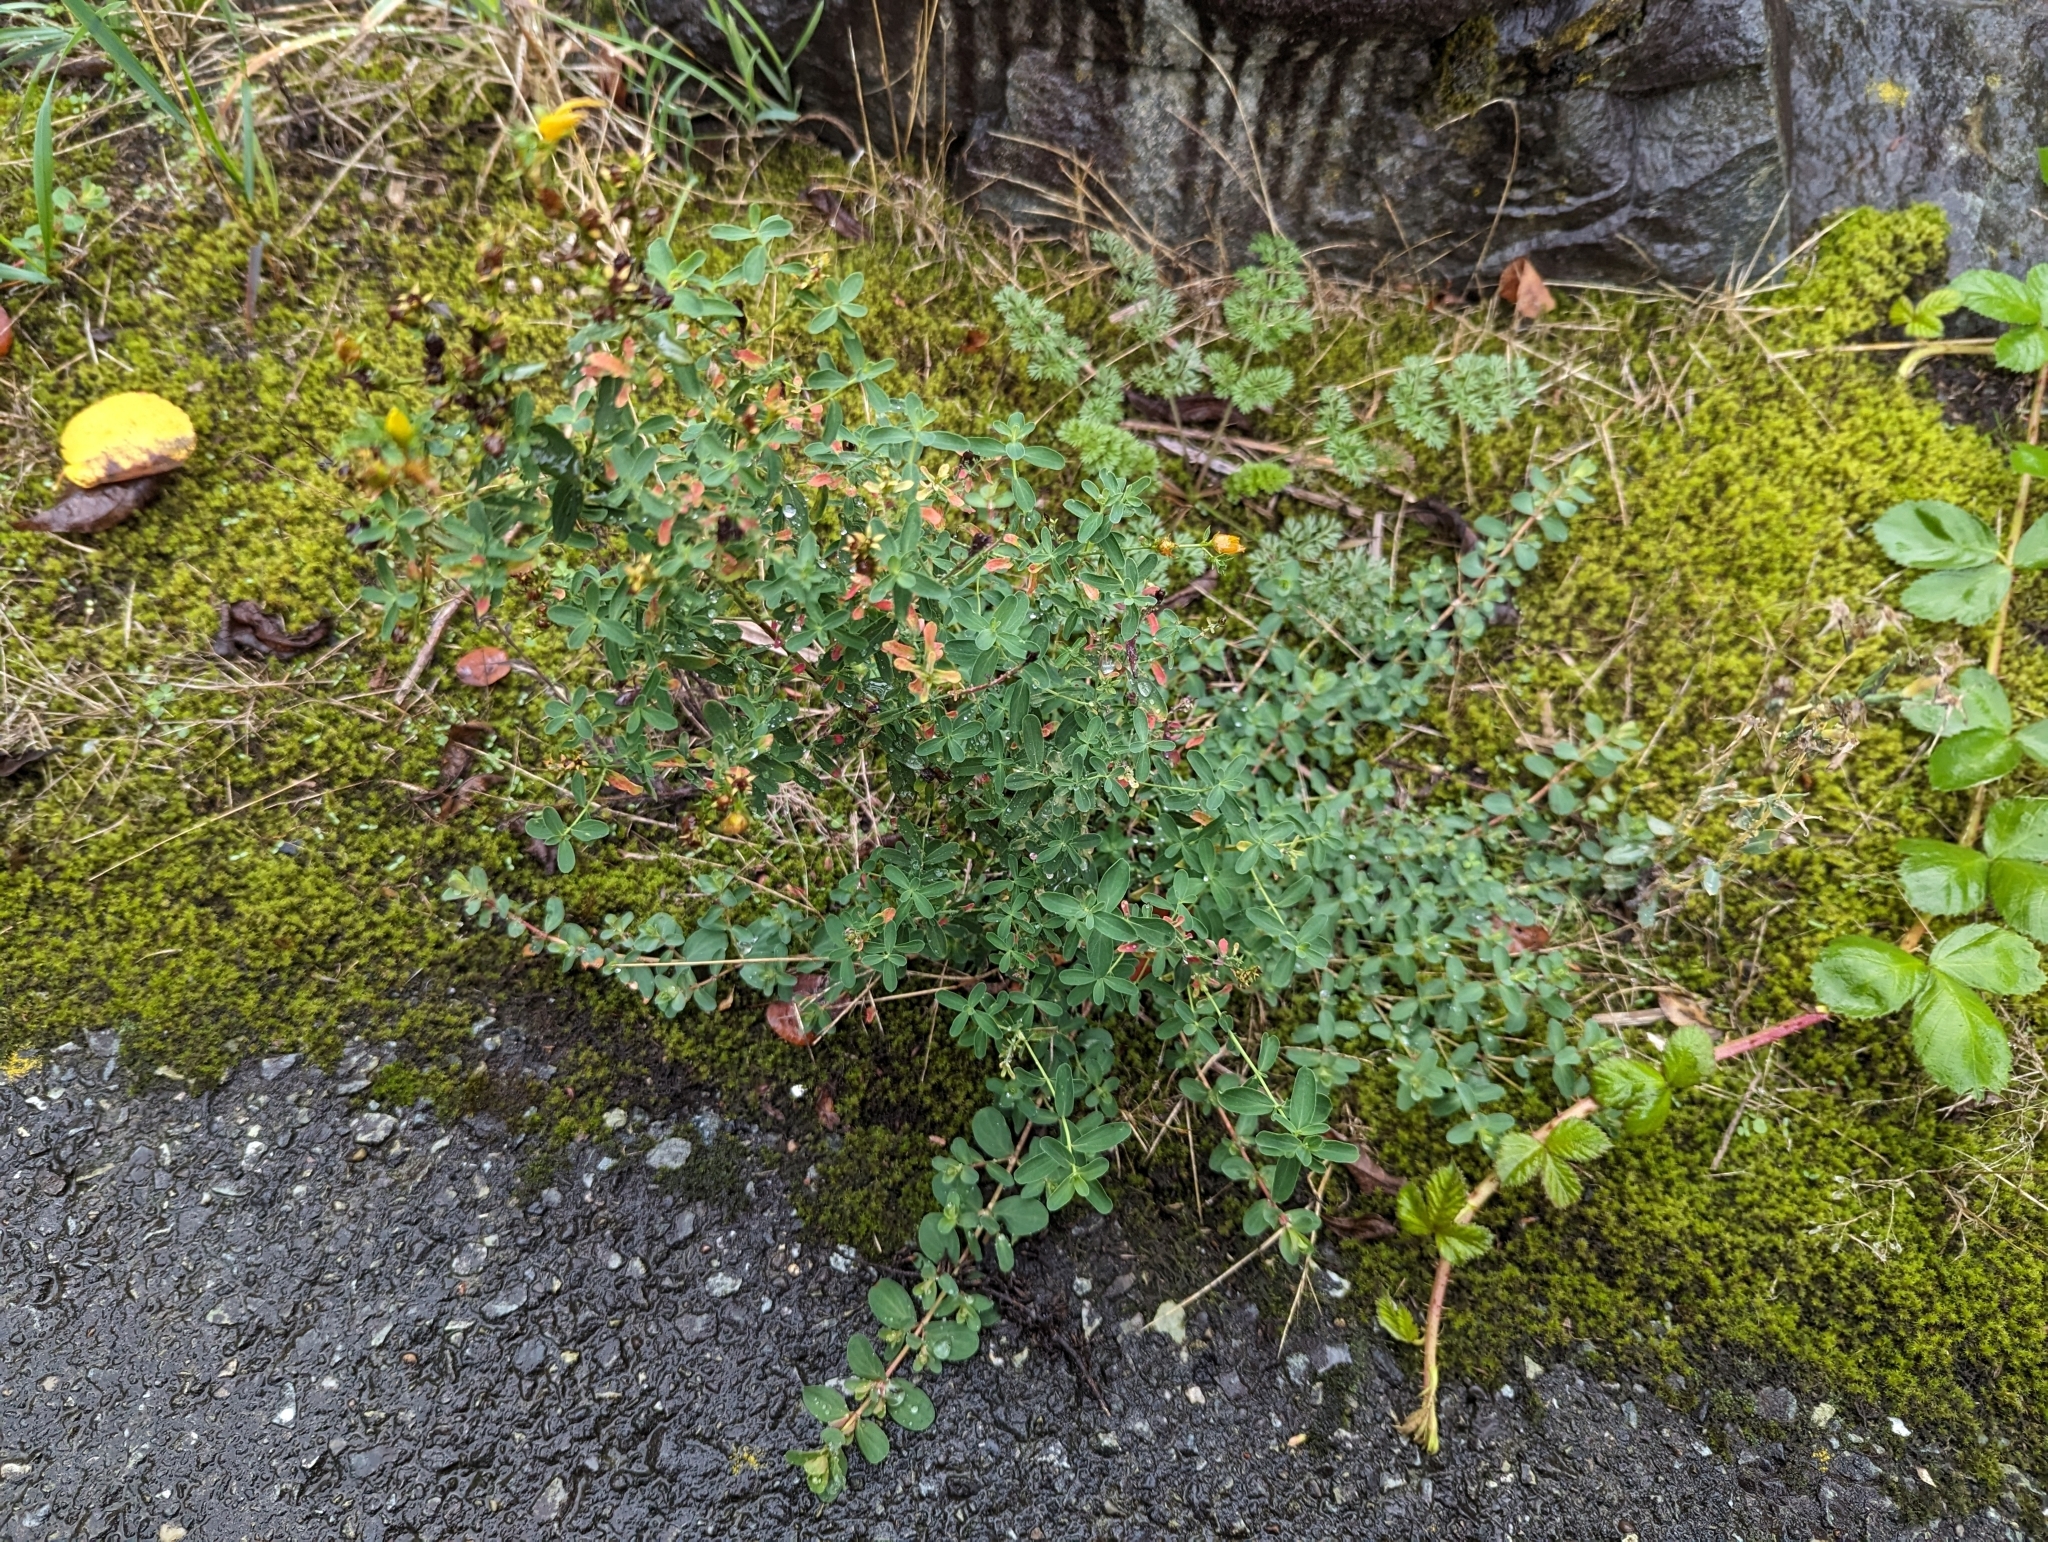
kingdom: Plantae
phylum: Tracheophyta
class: Magnoliopsida
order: Malpighiales
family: Hypericaceae
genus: Hypericum
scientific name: Hypericum perforatum
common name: Common st. johnswort
